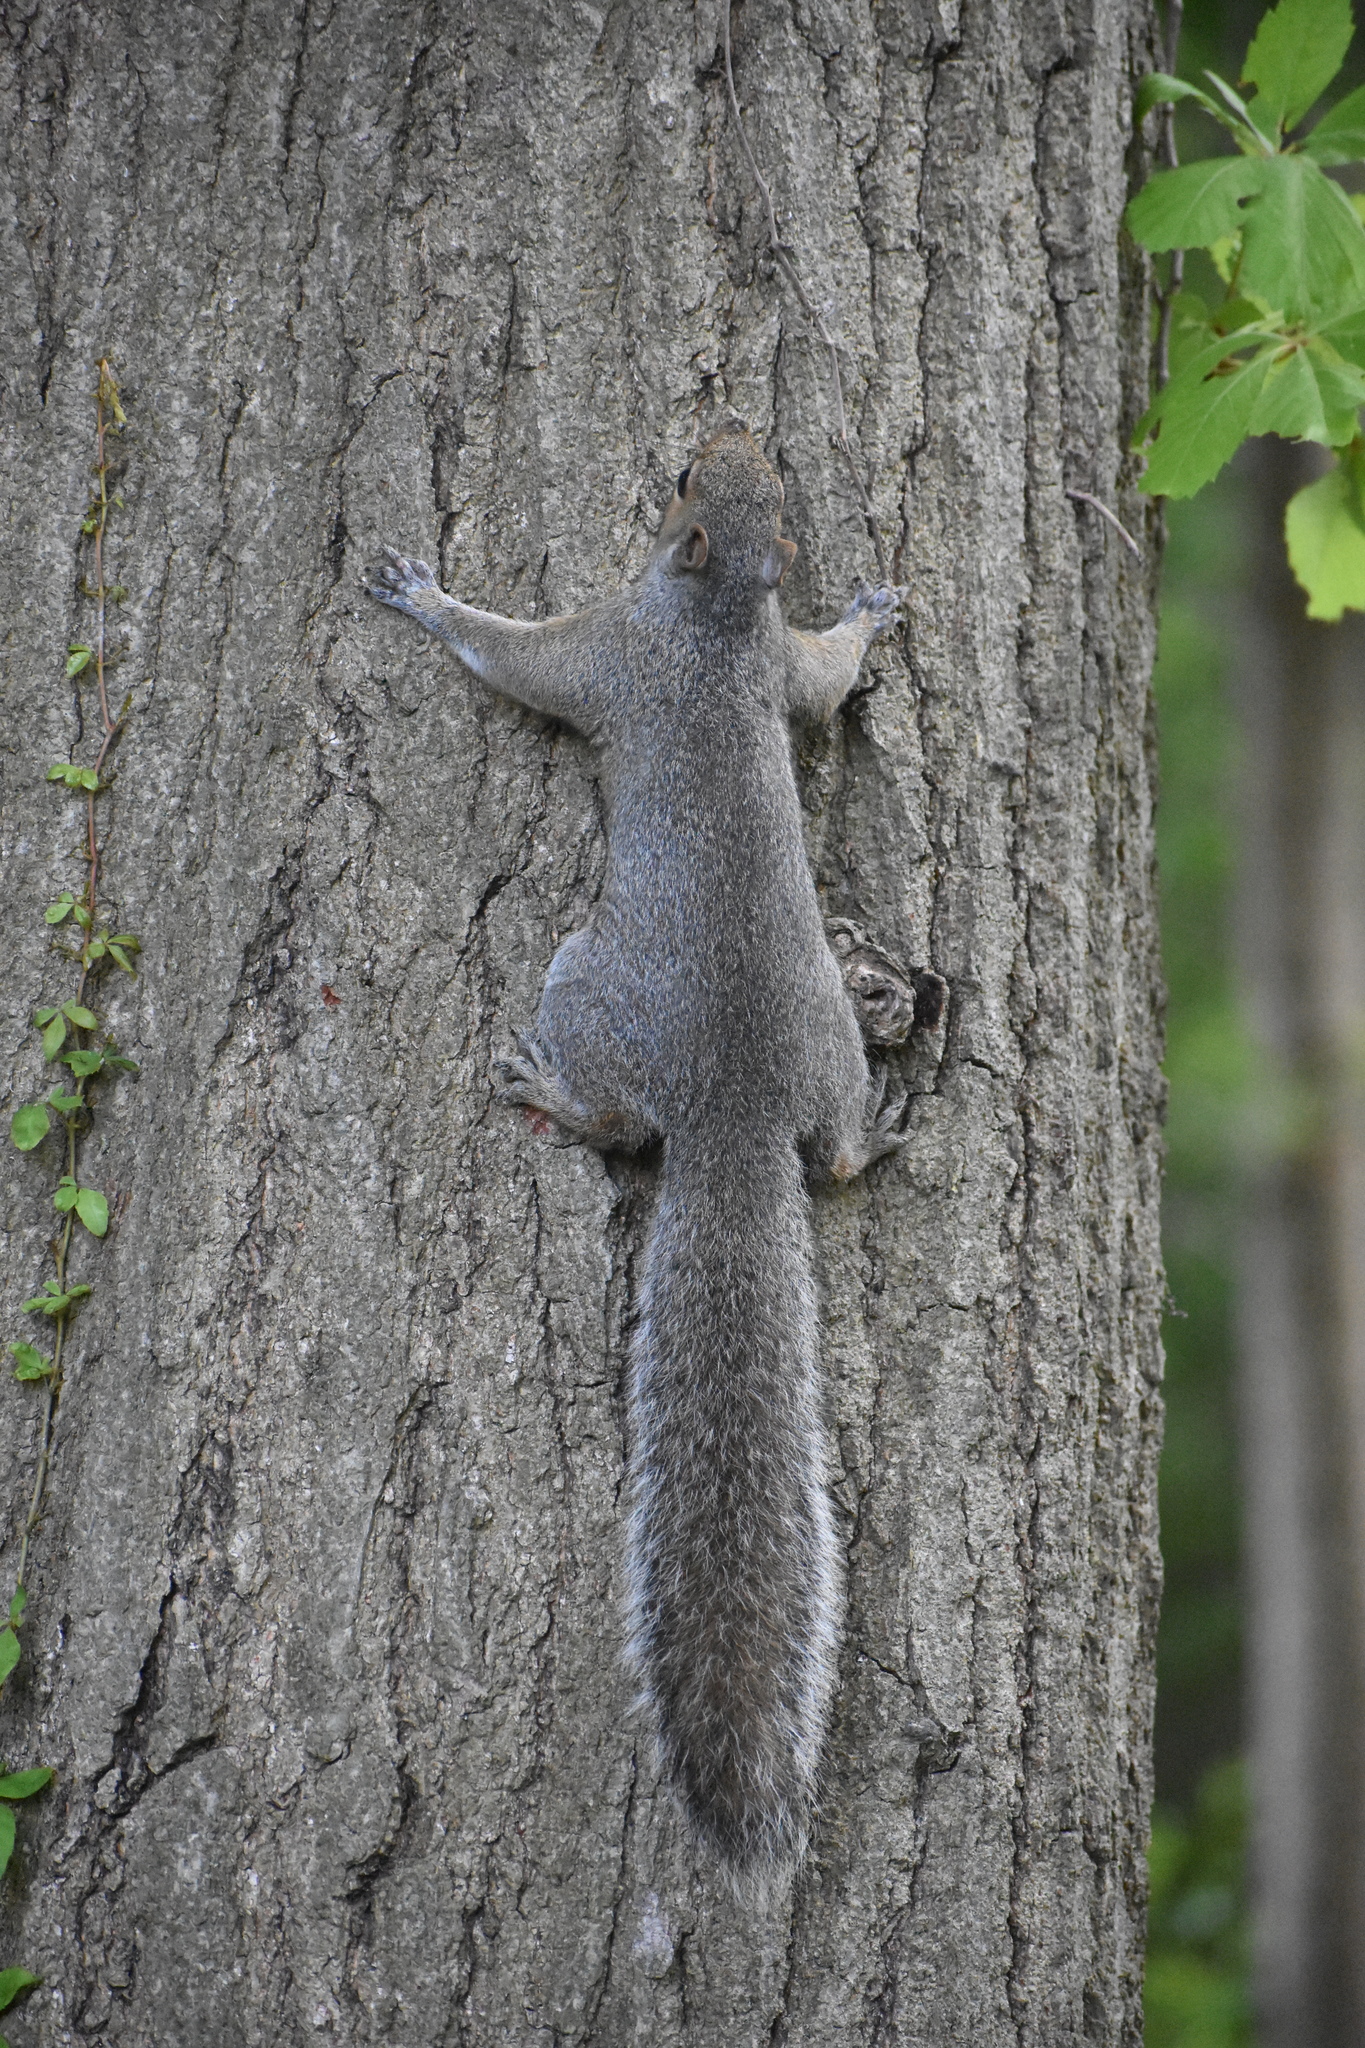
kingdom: Animalia
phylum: Chordata
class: Mammalia
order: Rodentia
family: Sciuridae
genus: Sciurus
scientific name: Sciurus carolinensis
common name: Eastern gray squirrel
